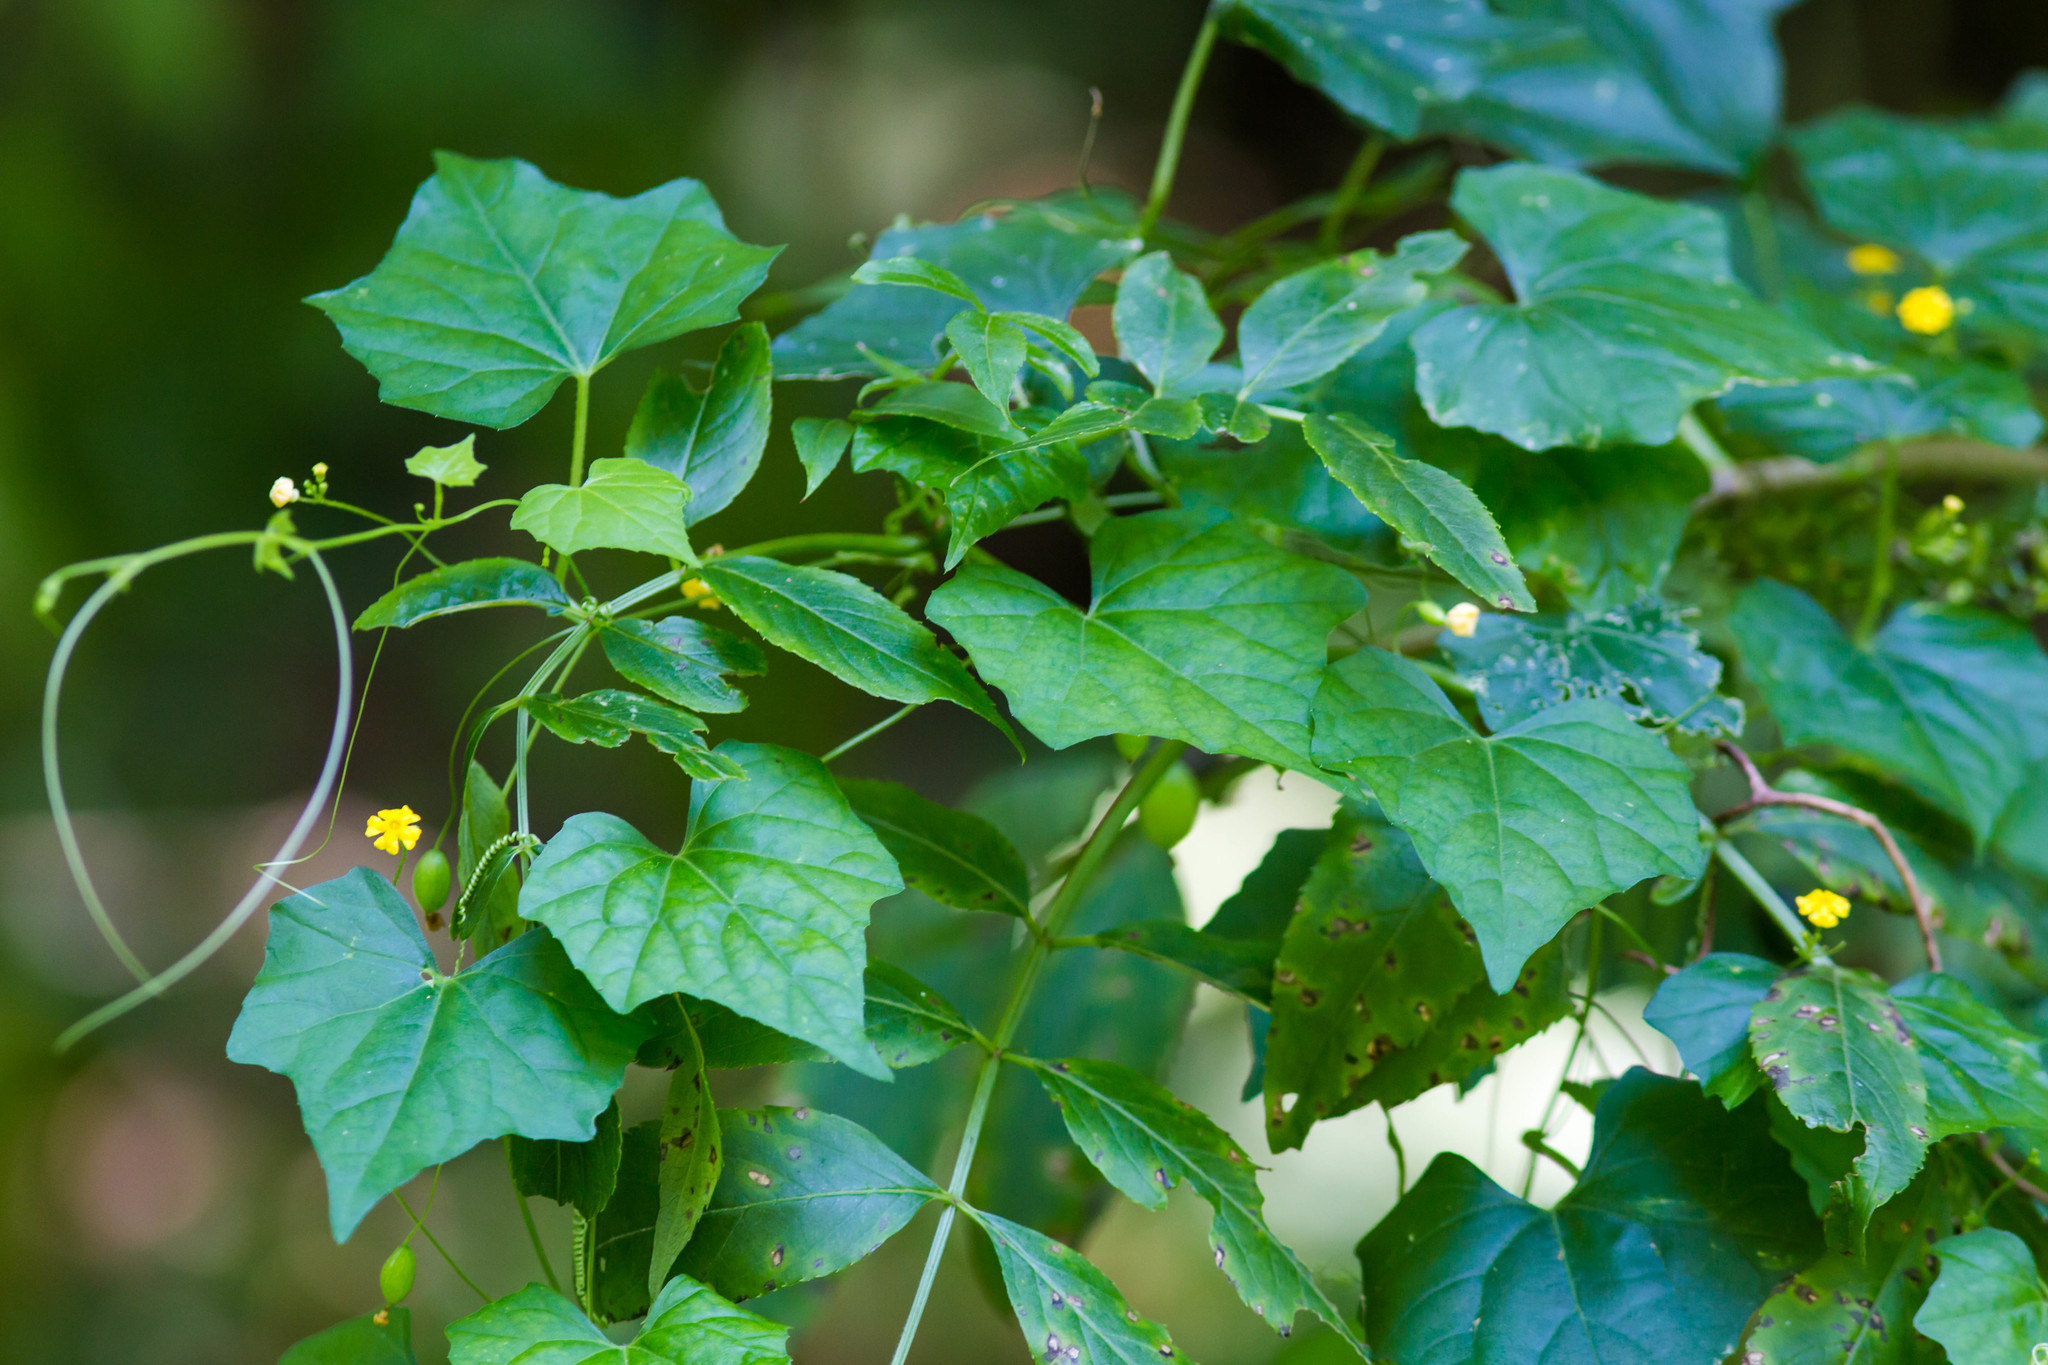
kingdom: Plantae
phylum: Tracheophyta
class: Magnoliopsida
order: Cucurbitales
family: Cucurbitaceae
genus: Melothria
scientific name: Melothria pendula
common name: Creeping-cucumber
